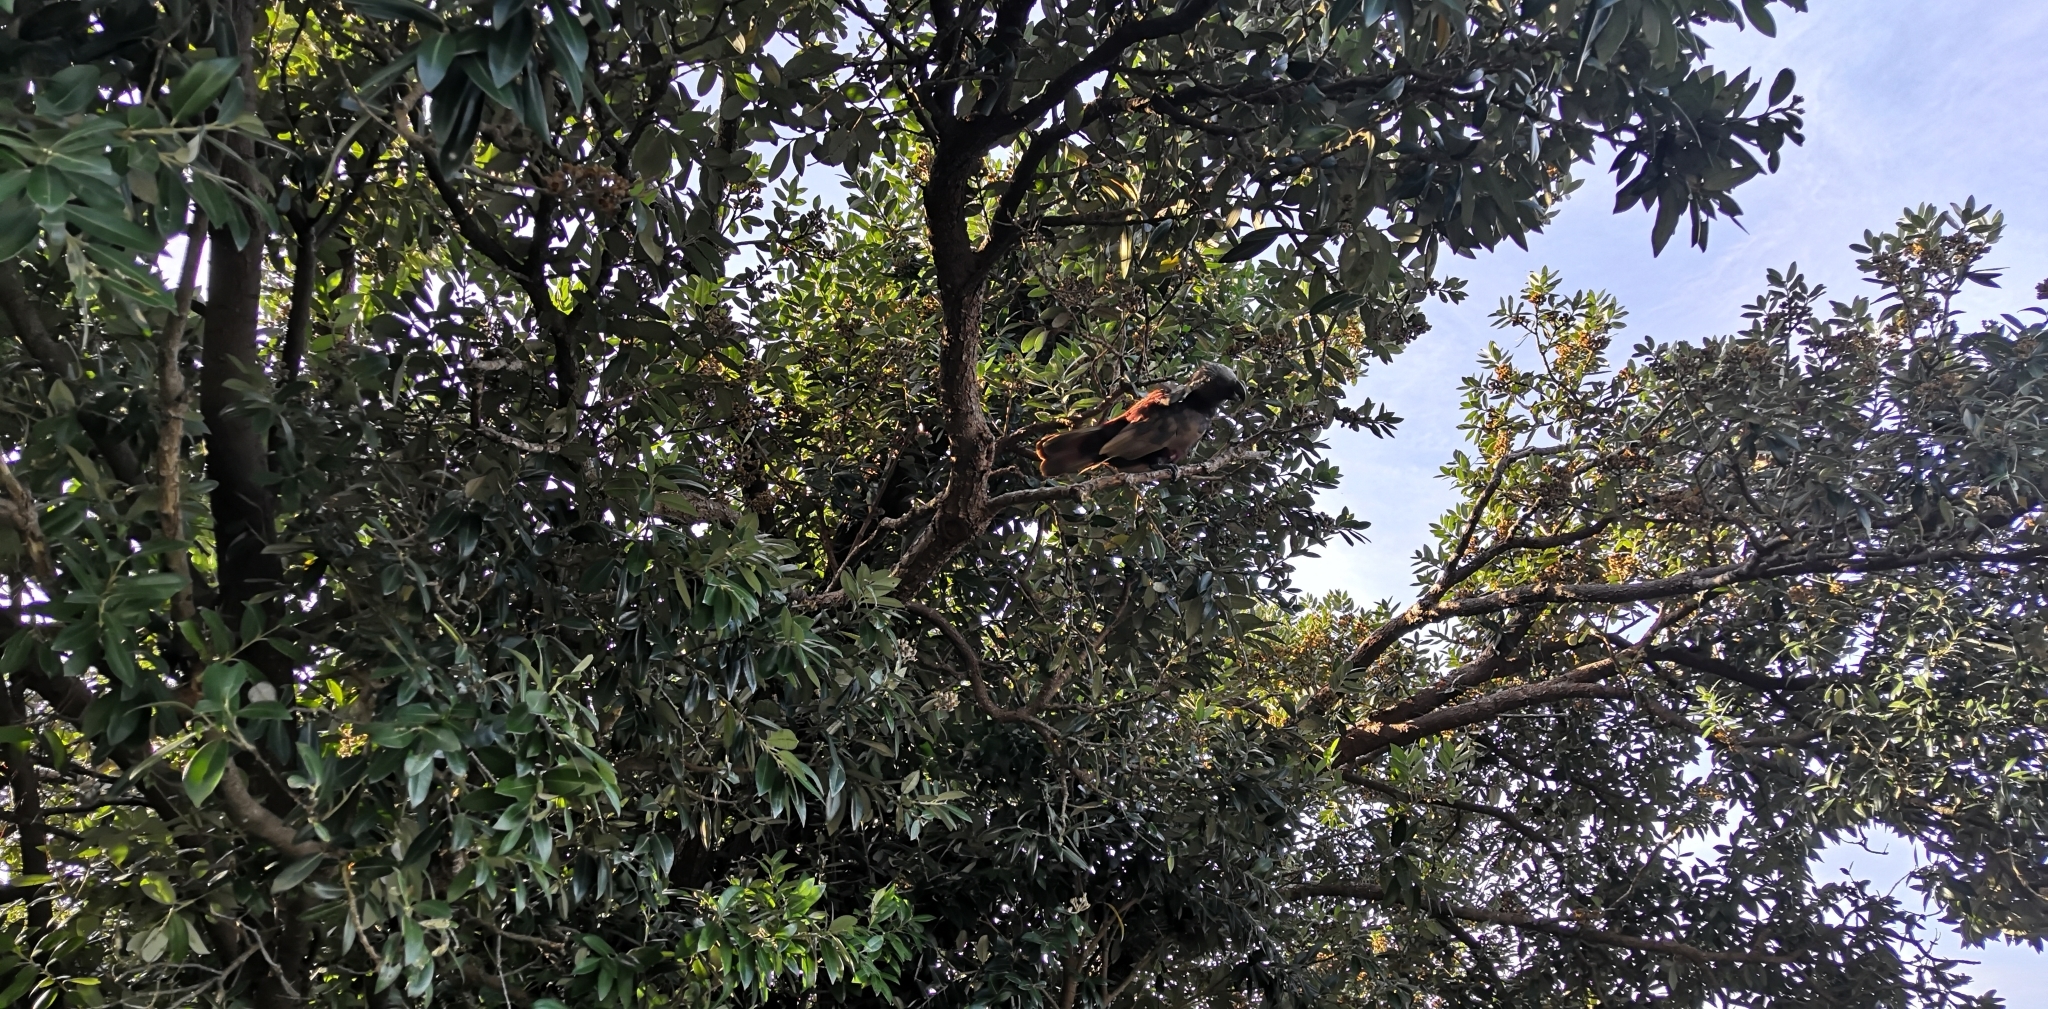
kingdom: Animalia
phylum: Chordata
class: Aves
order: Psittaciformes
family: Psittacidae
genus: Nestor
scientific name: Nestor meridionalis
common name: New zealand kaka
